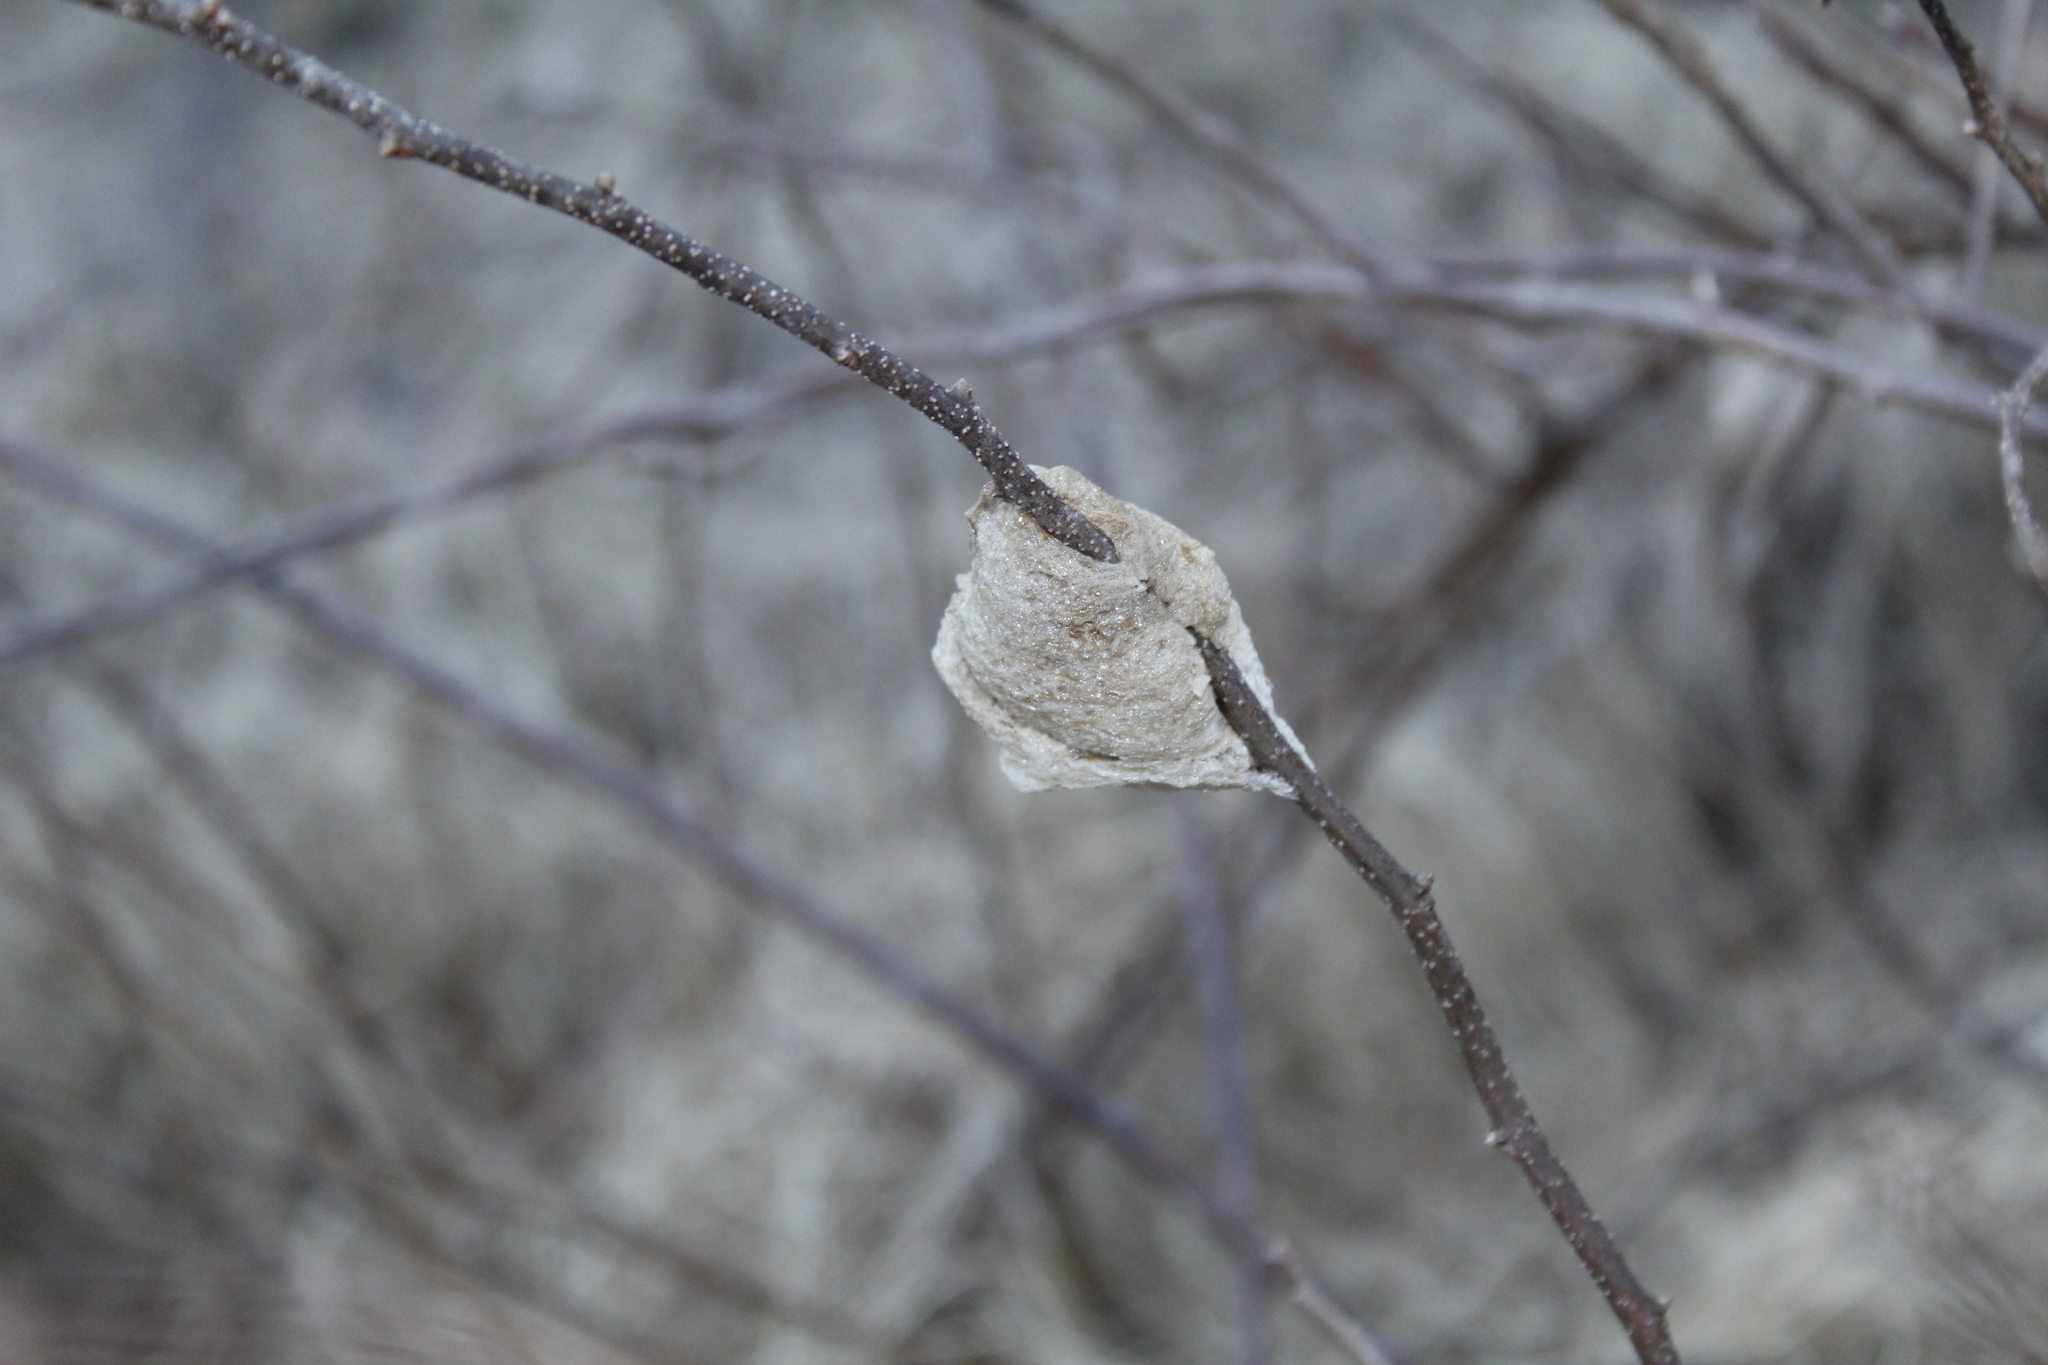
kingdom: Animalia
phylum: Arthropoda
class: Insecta
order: Mantodea
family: Mantidae
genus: Tenodera
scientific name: Tenodera sinensis
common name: Chinese mantis
